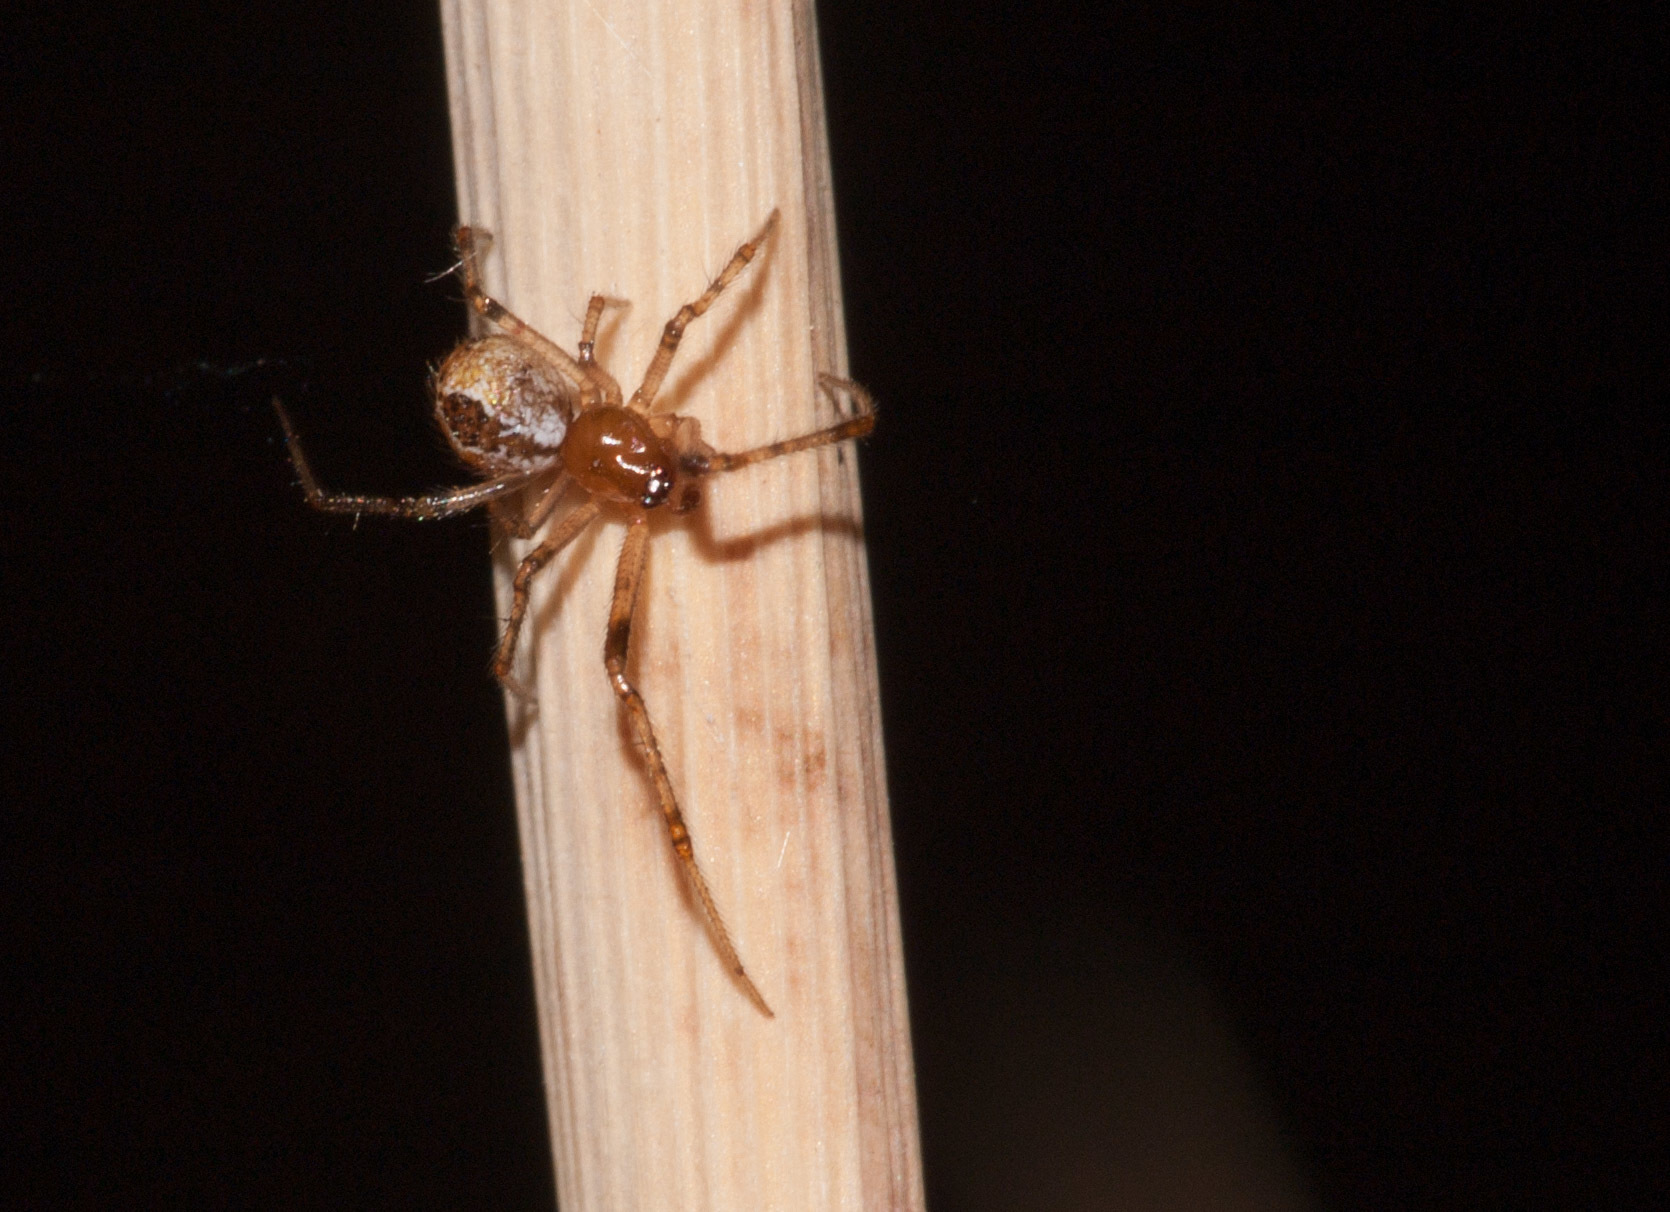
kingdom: Animalia
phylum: Arthropoda
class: Arachnida
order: Araneae
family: Theridiidae
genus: Cryptachaea
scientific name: Cryptachaea veruculata
